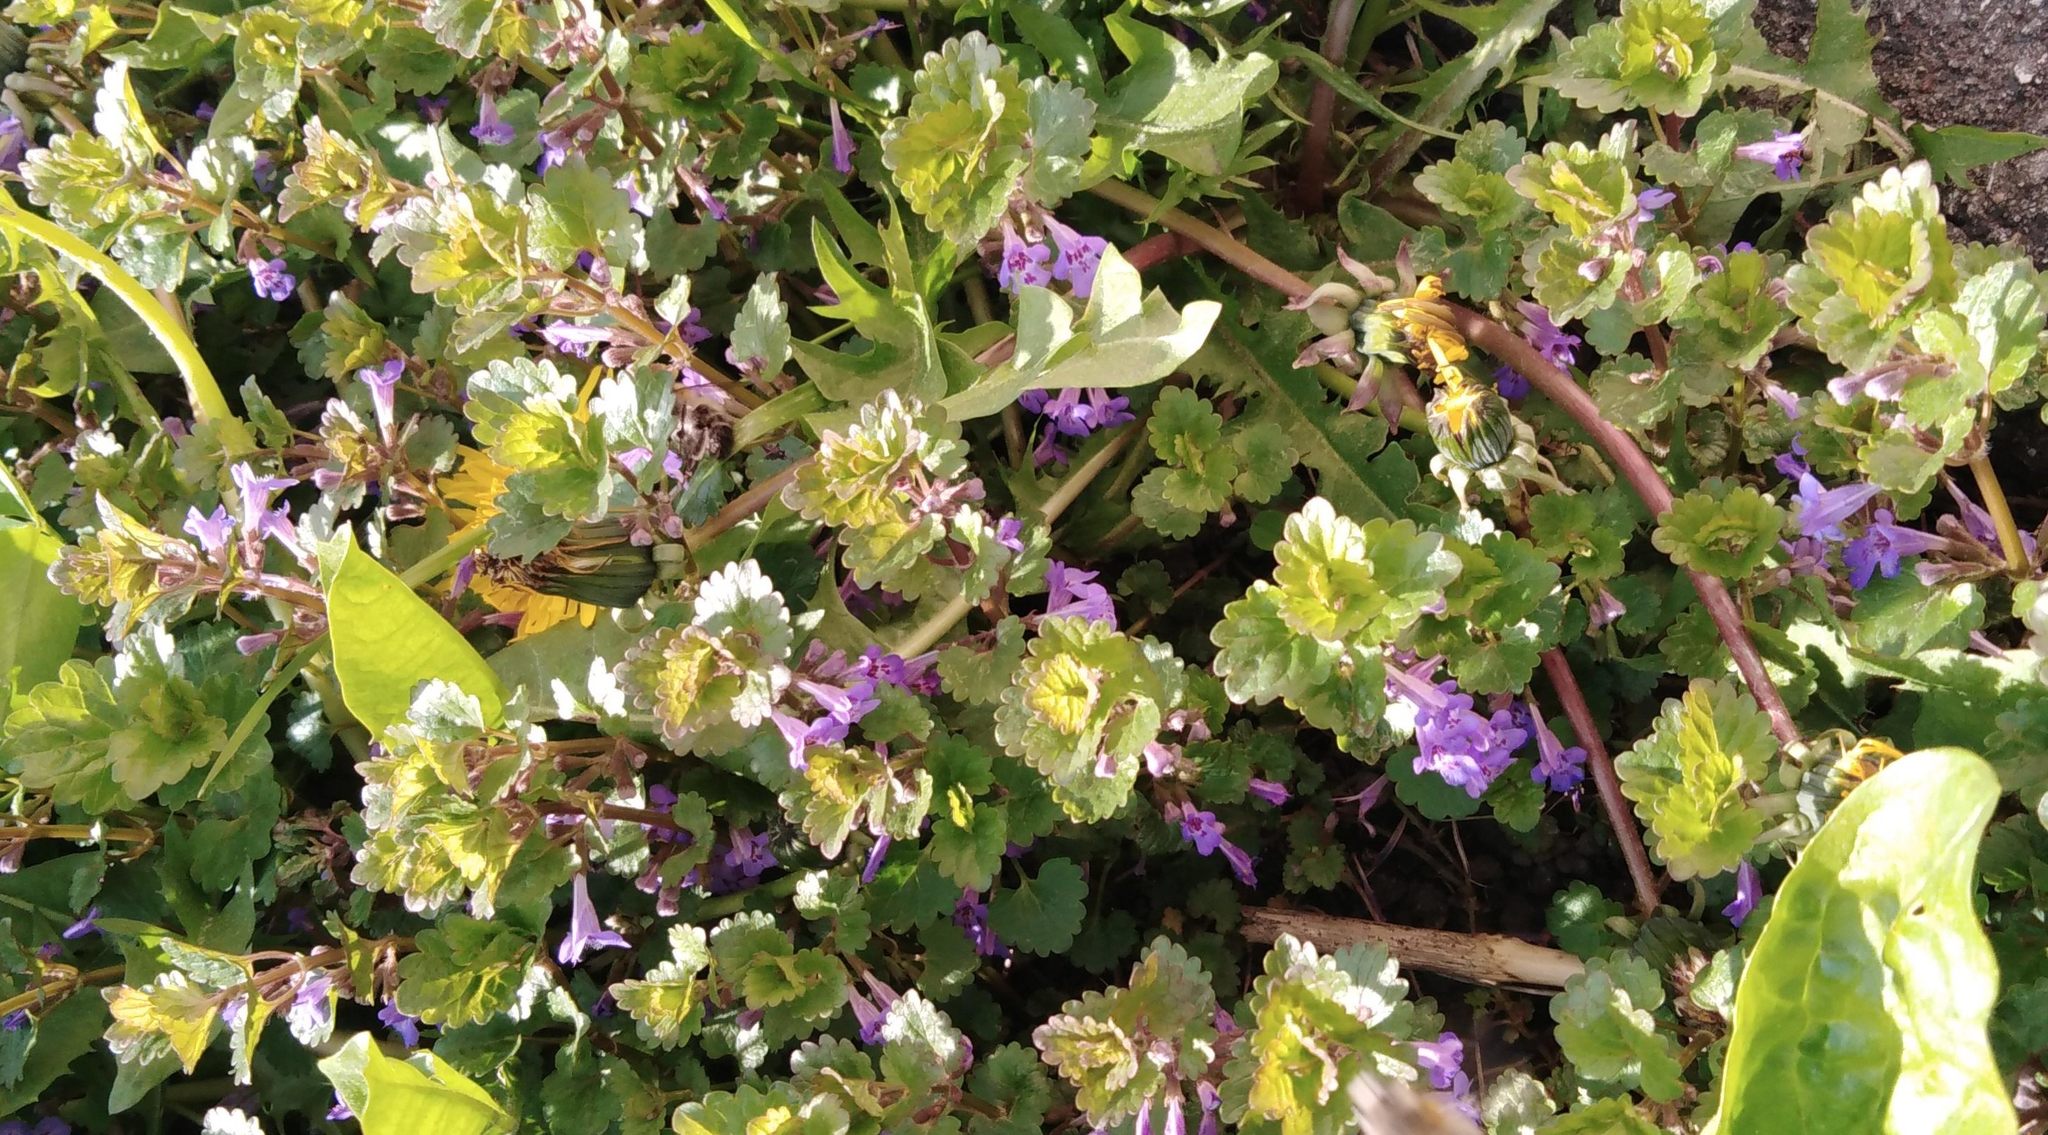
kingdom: Plantae
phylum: Tracheophyta
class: Magnoliopsida
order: Lamiales
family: Lamiaceae
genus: Glechoma
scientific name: Glechoma hederacea
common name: Ground ivy
